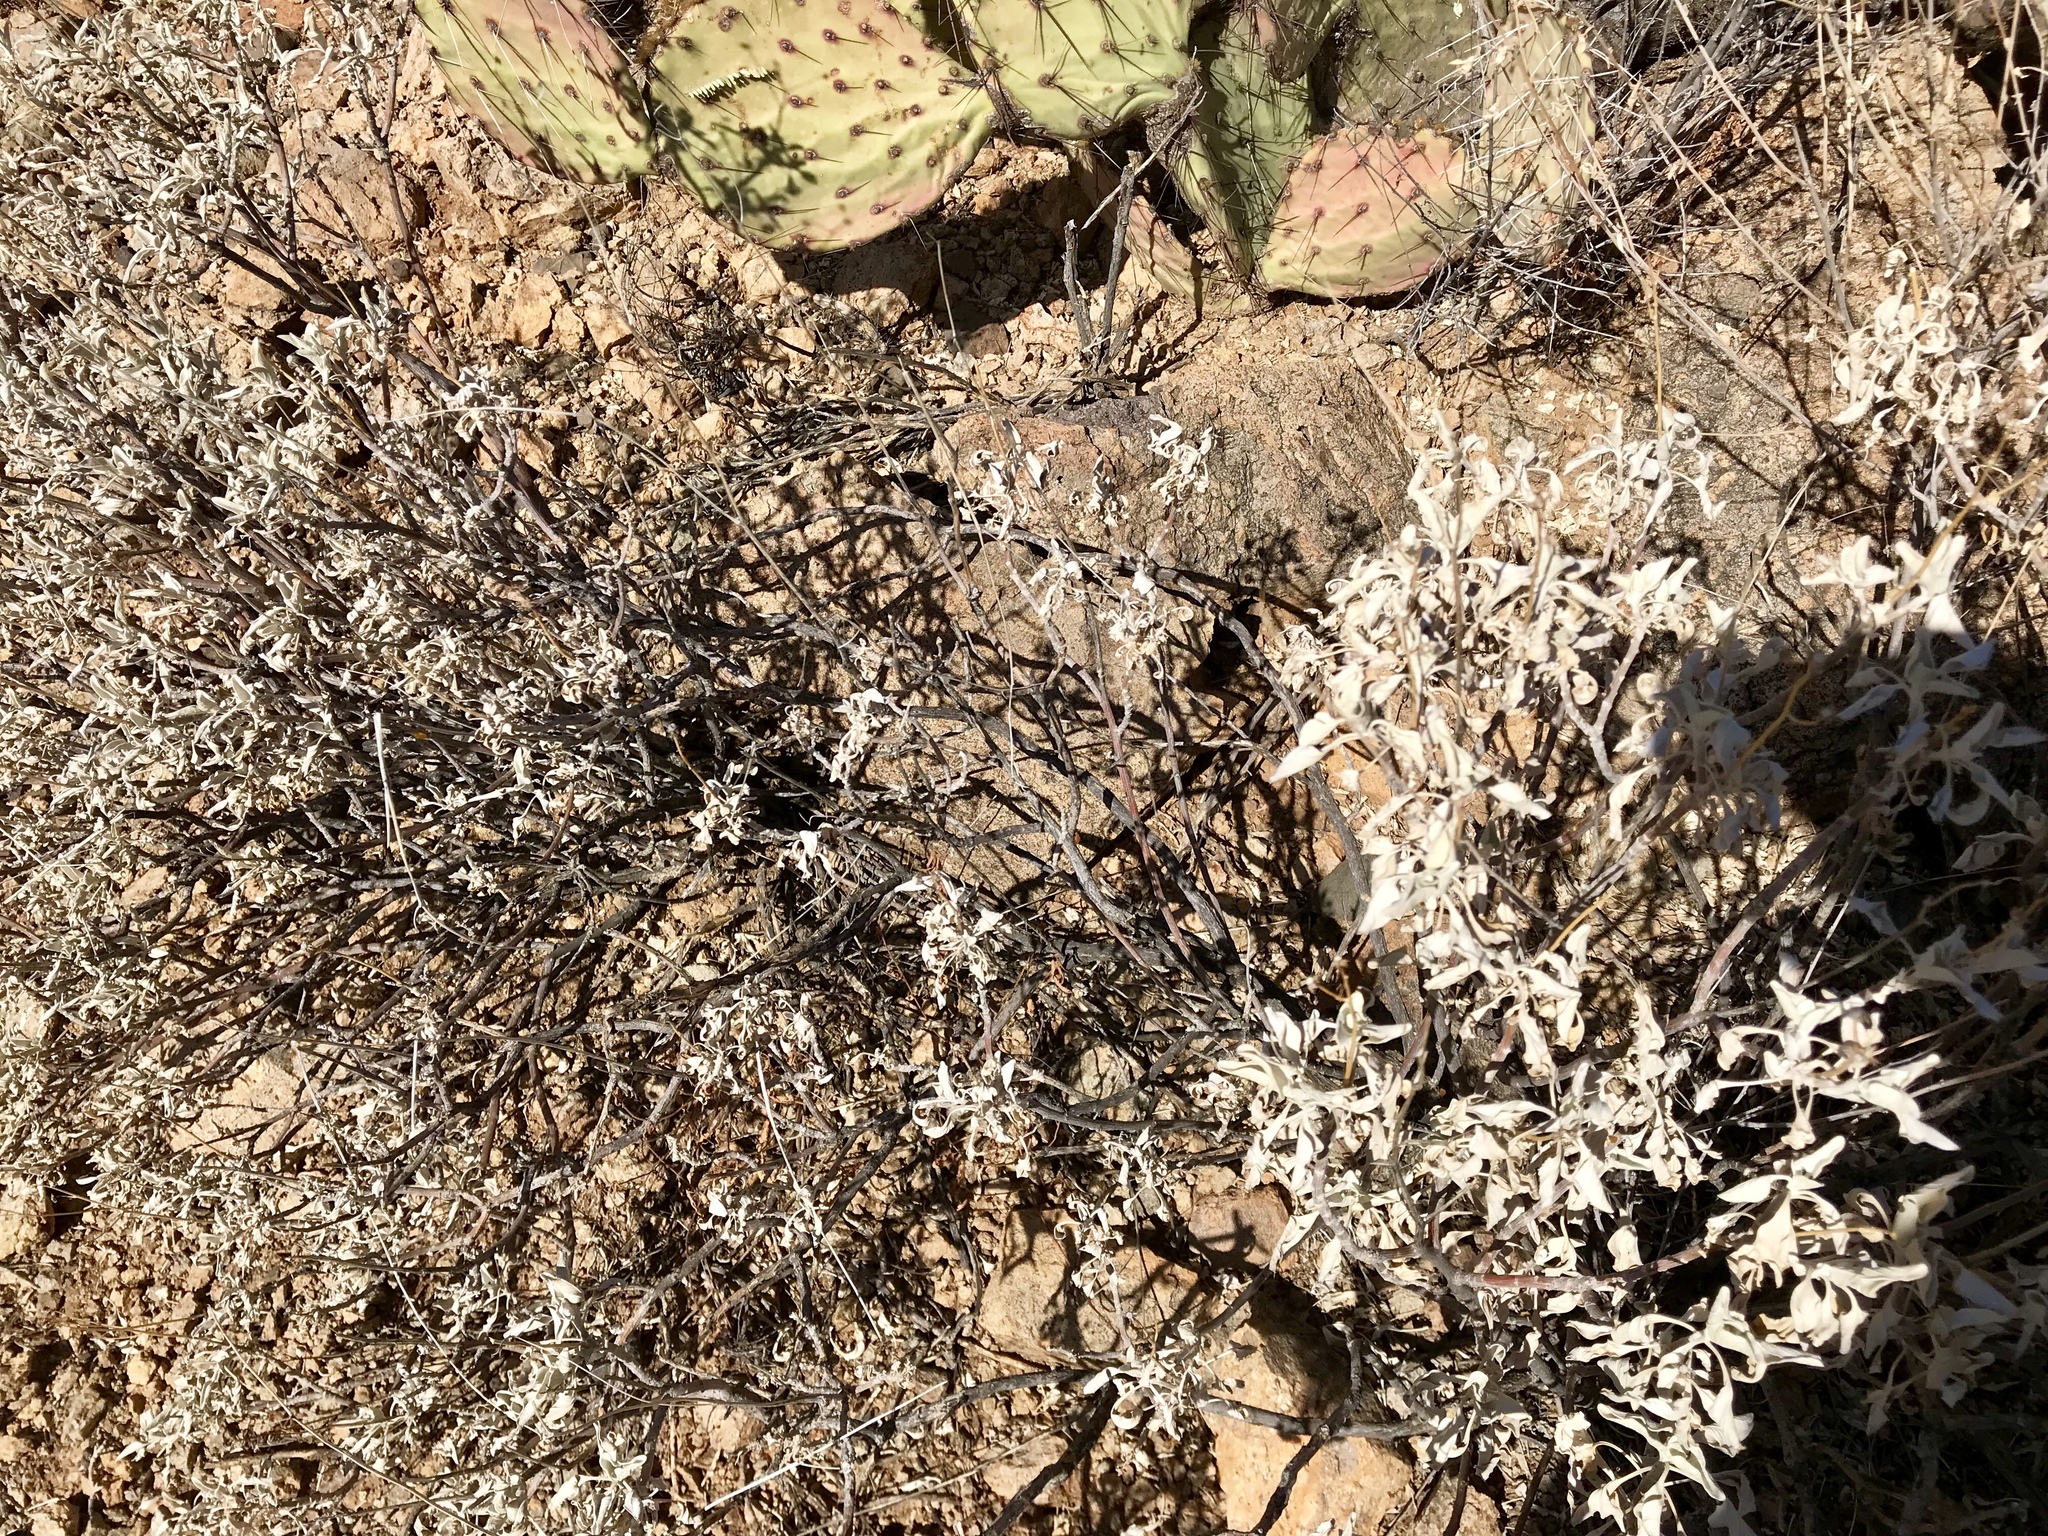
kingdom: Plantae
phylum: Tracheophyta
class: Magnoliopsida
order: Asterales
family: Asteraceae
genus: Encelia
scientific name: Encelia farinosa
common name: Brittlebush
